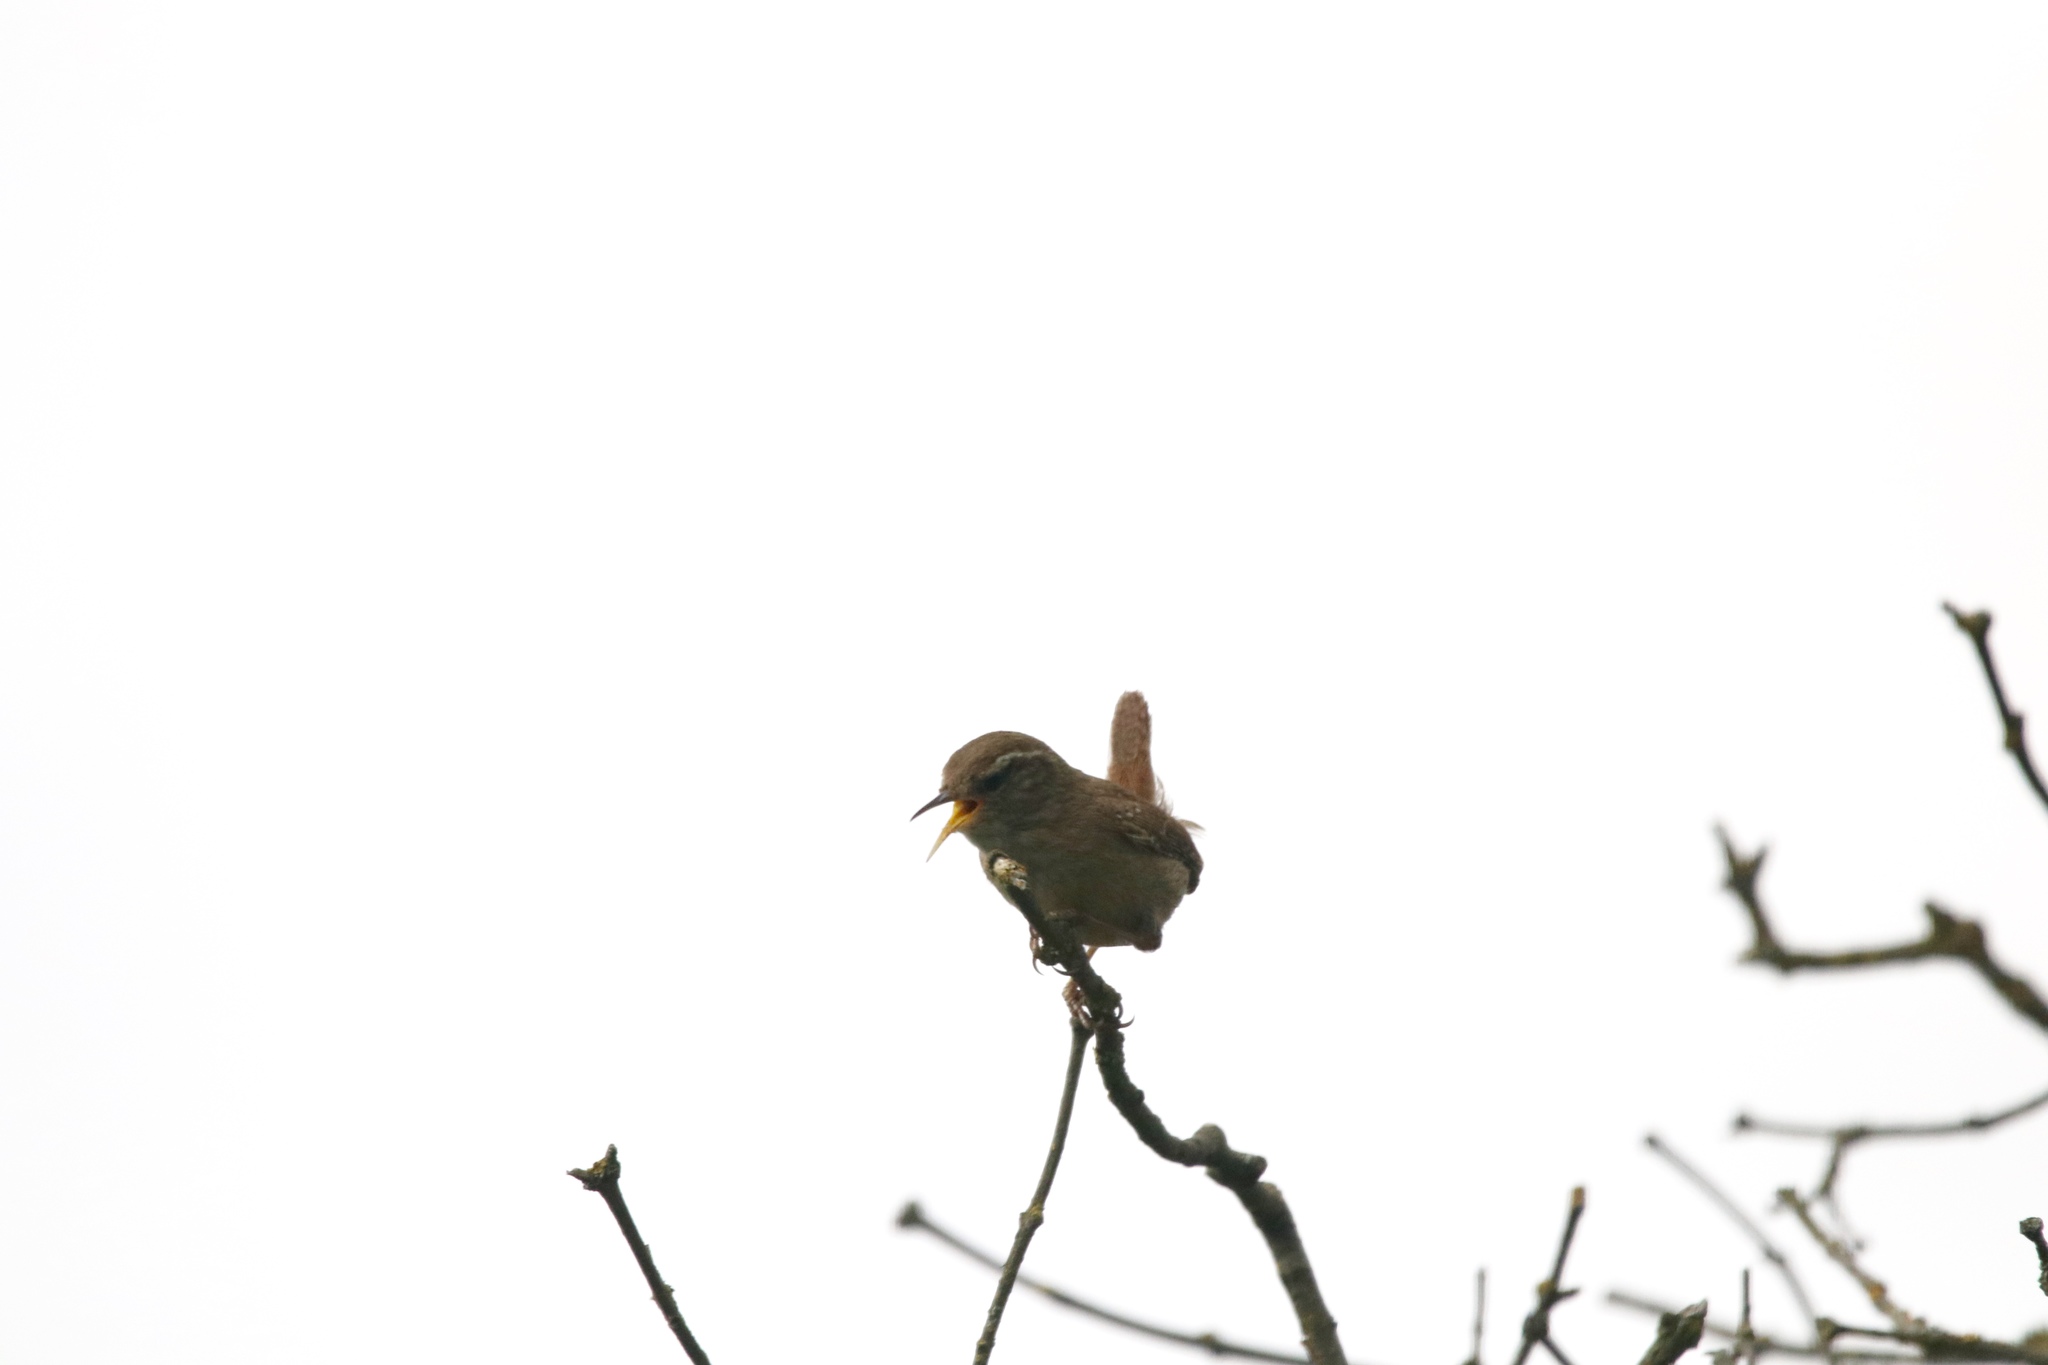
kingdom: Animalia
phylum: Chordata
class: Aves
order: Passeriformes
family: Troglodytidae
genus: Troglodytes
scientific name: Troglodytes troglodytes
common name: Eurasian wren
